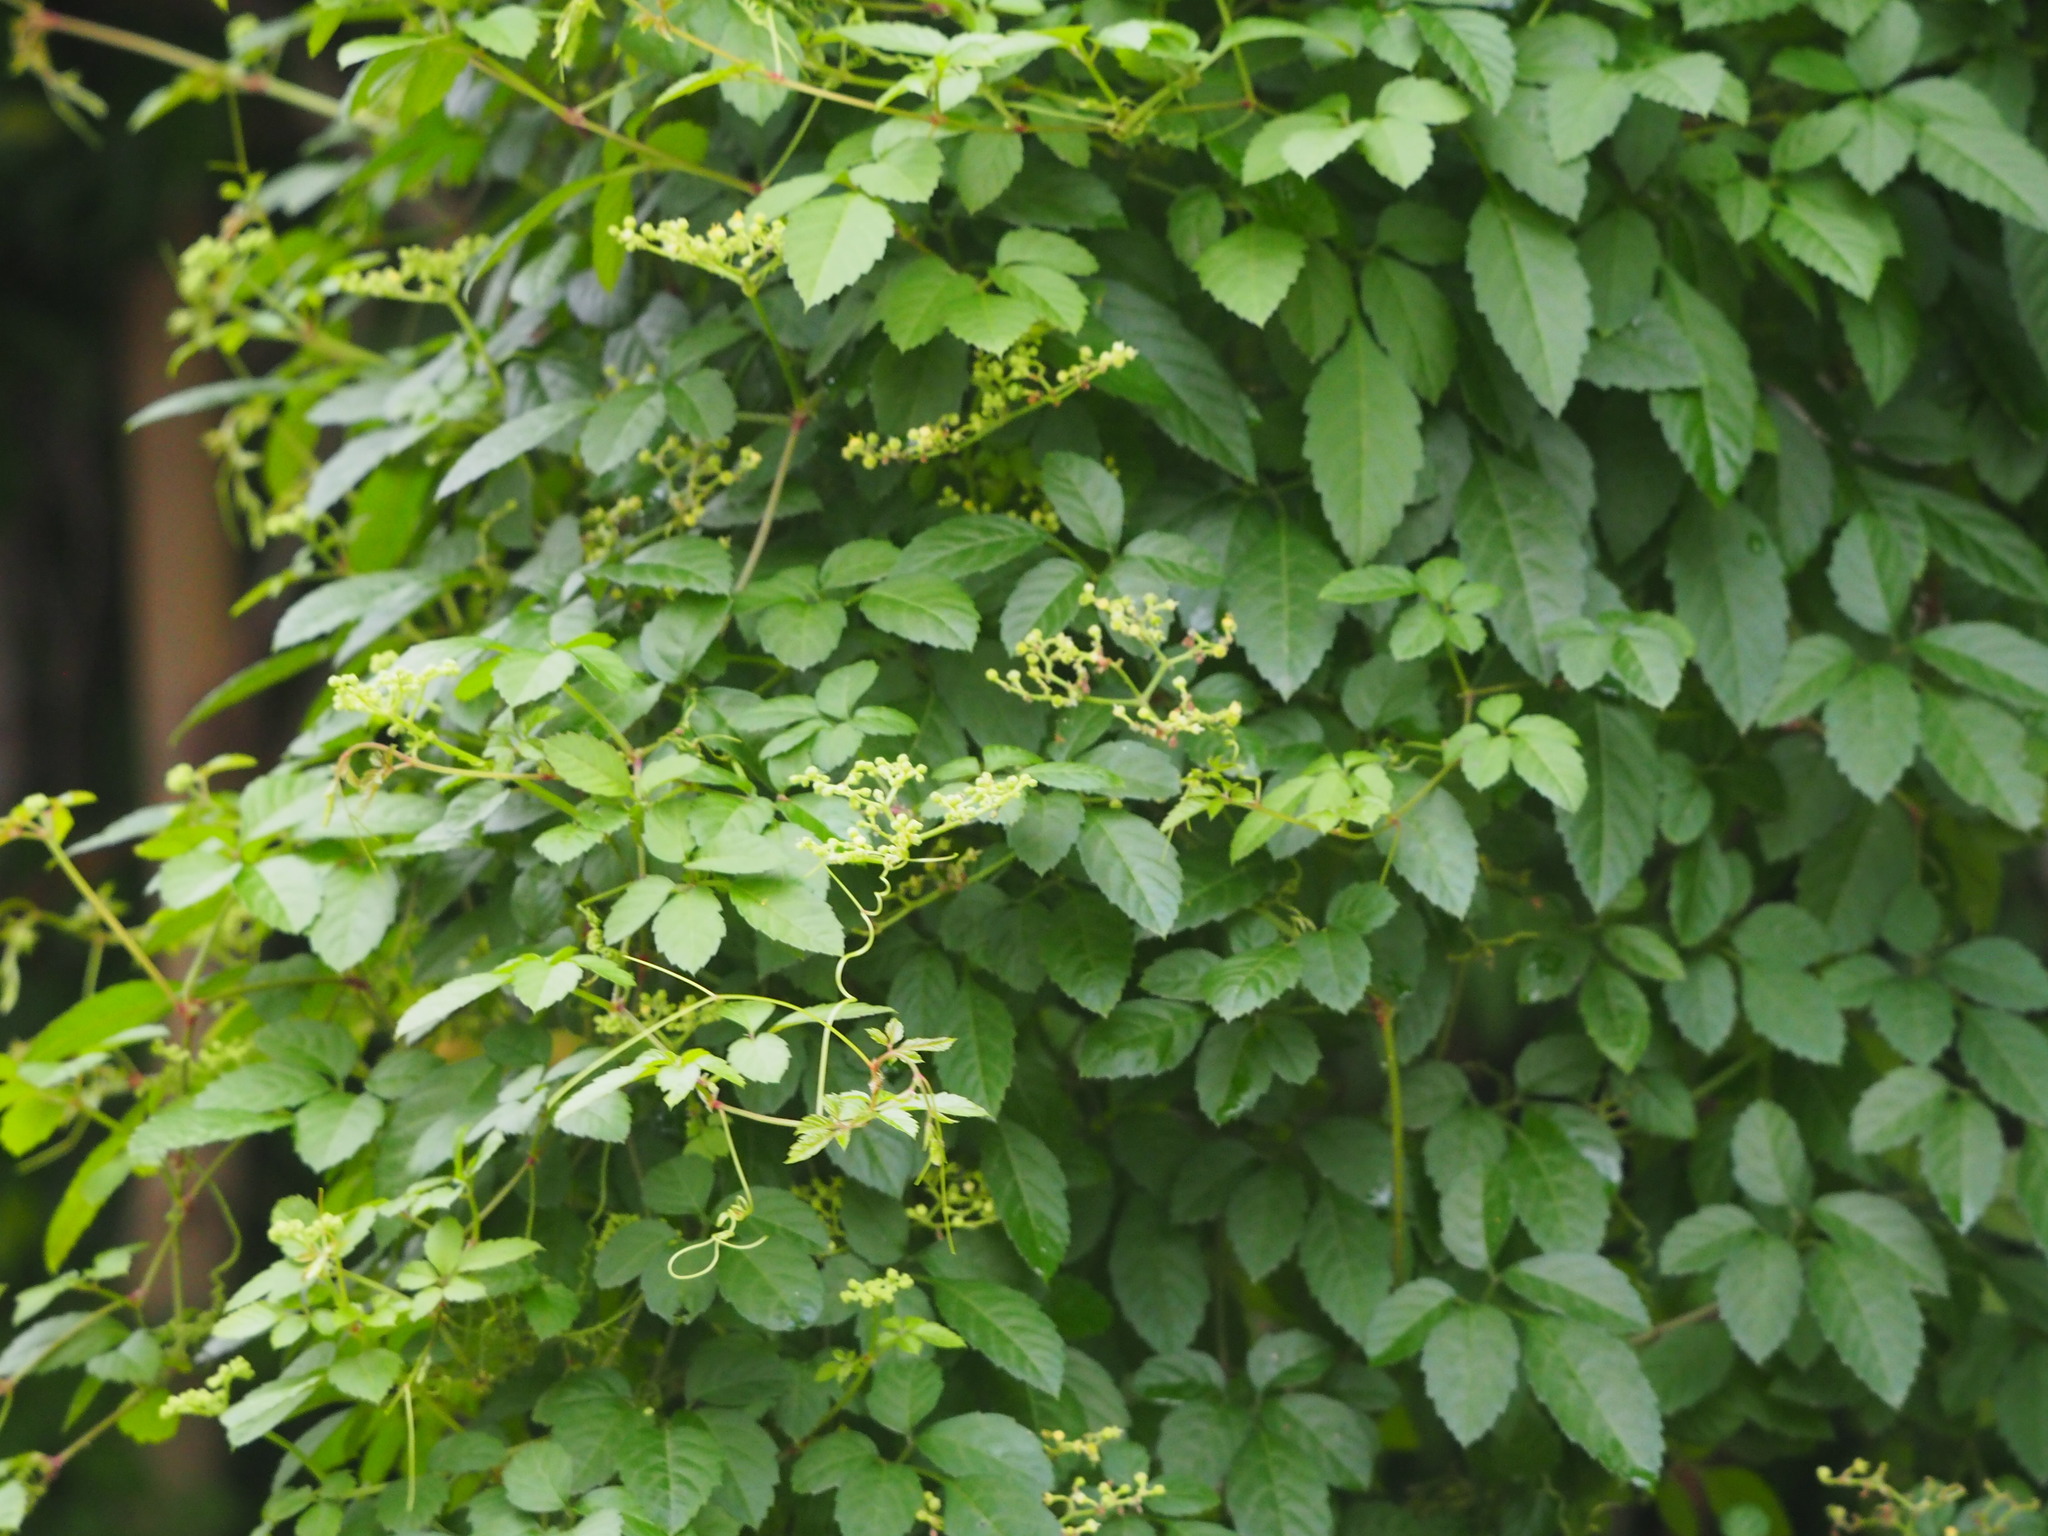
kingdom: Plantae
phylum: Tracheophyta
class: Magnoliopsida
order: Vitales
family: Vitaceae
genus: Causonis
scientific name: Causonis japonica
